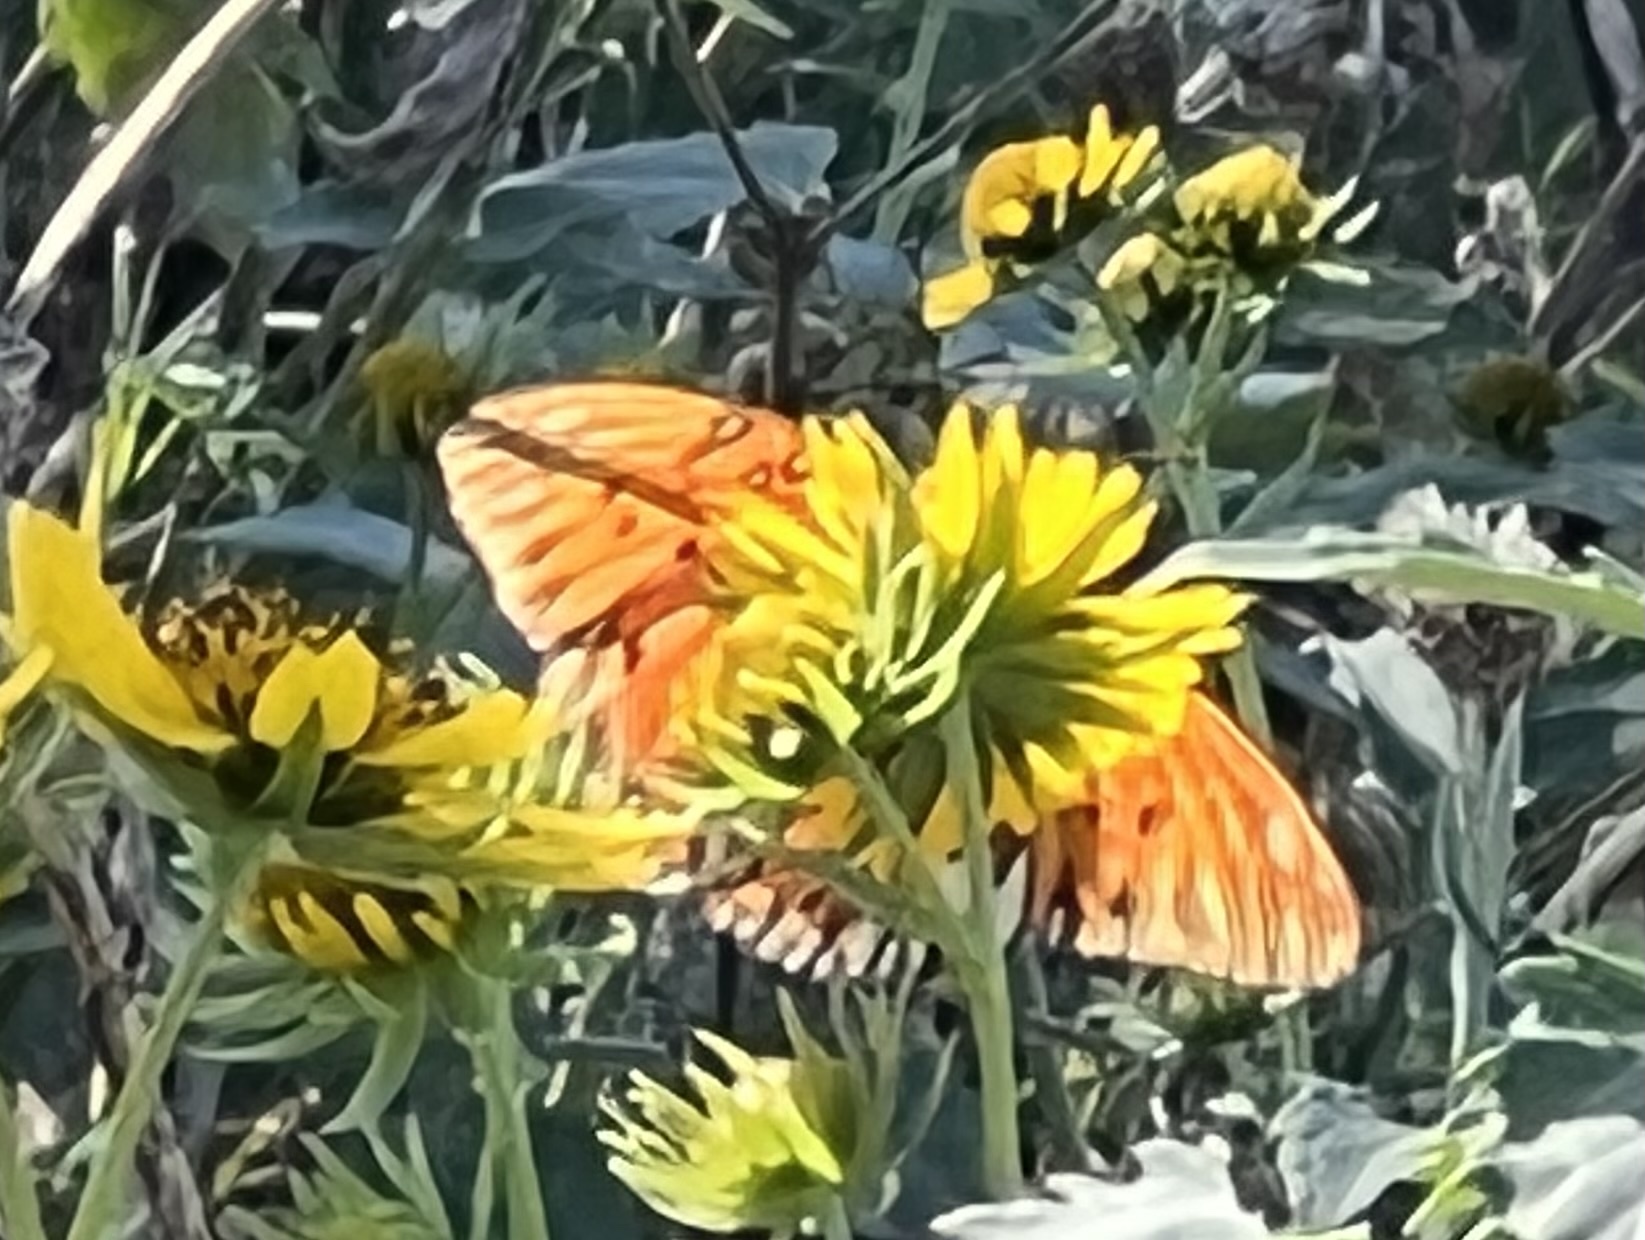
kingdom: Animalia
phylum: Arthropoda
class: Insecta
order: Lepidoptera
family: Nymphalidae
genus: Dione
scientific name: Dione vanillae
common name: Gulf fritillary
